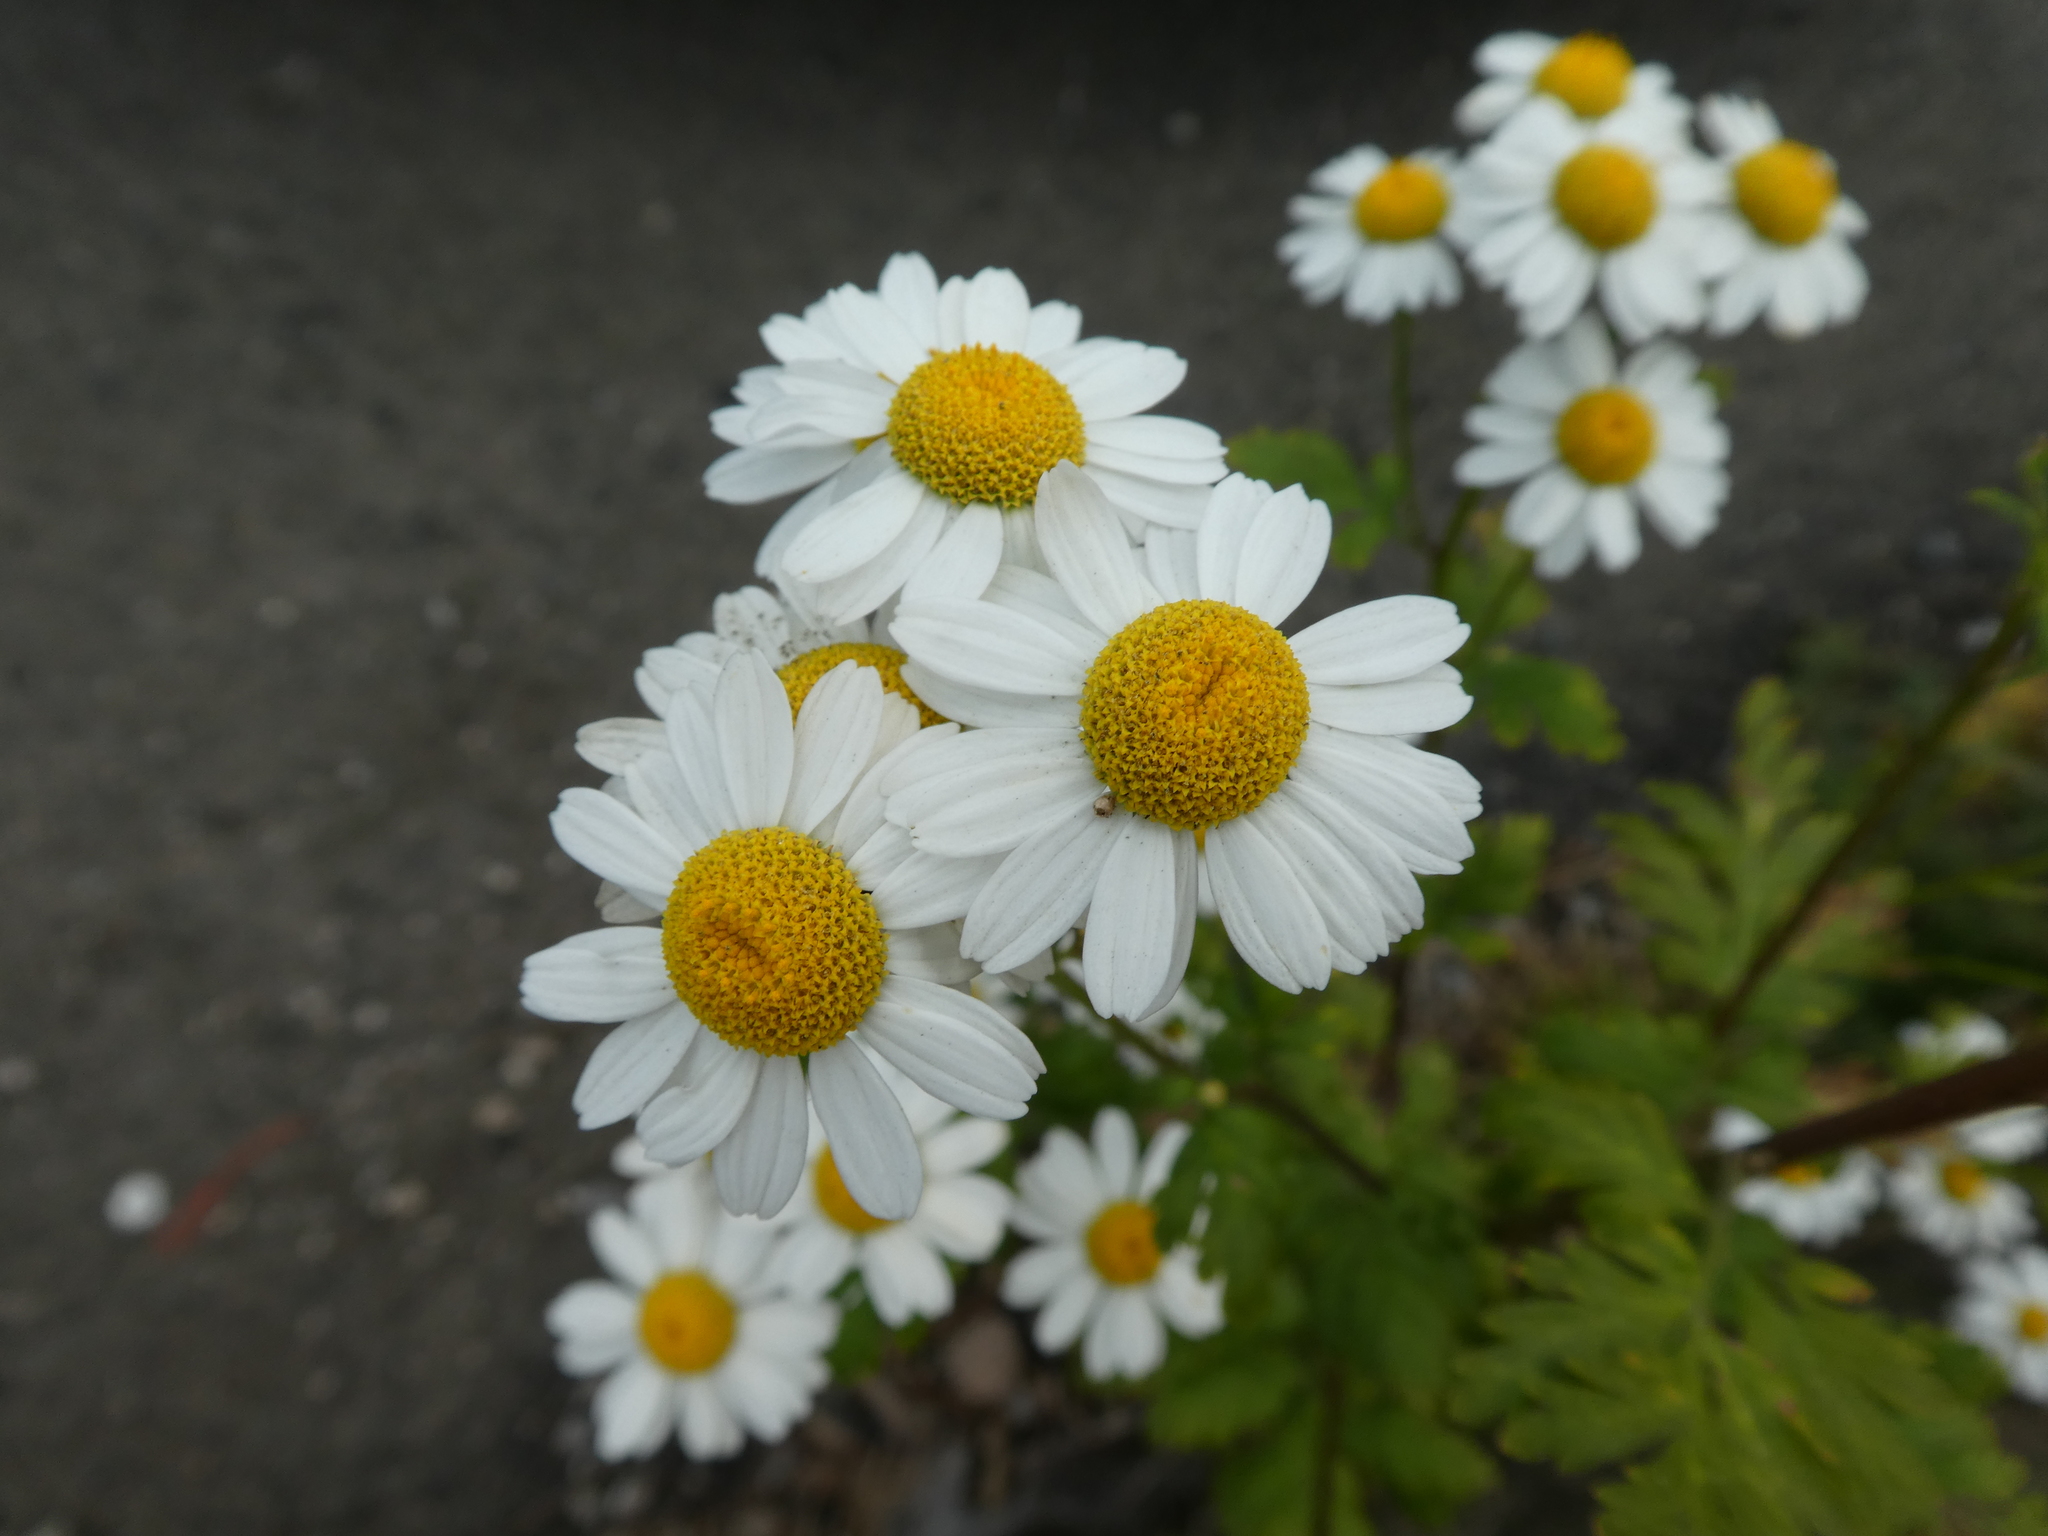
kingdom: Plantae
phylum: Tracheophyta
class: Magnoliopsida
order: Asterales
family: Asteraceae
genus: Tanacetum
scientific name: Tanacetum parthenium
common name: Feverfew
